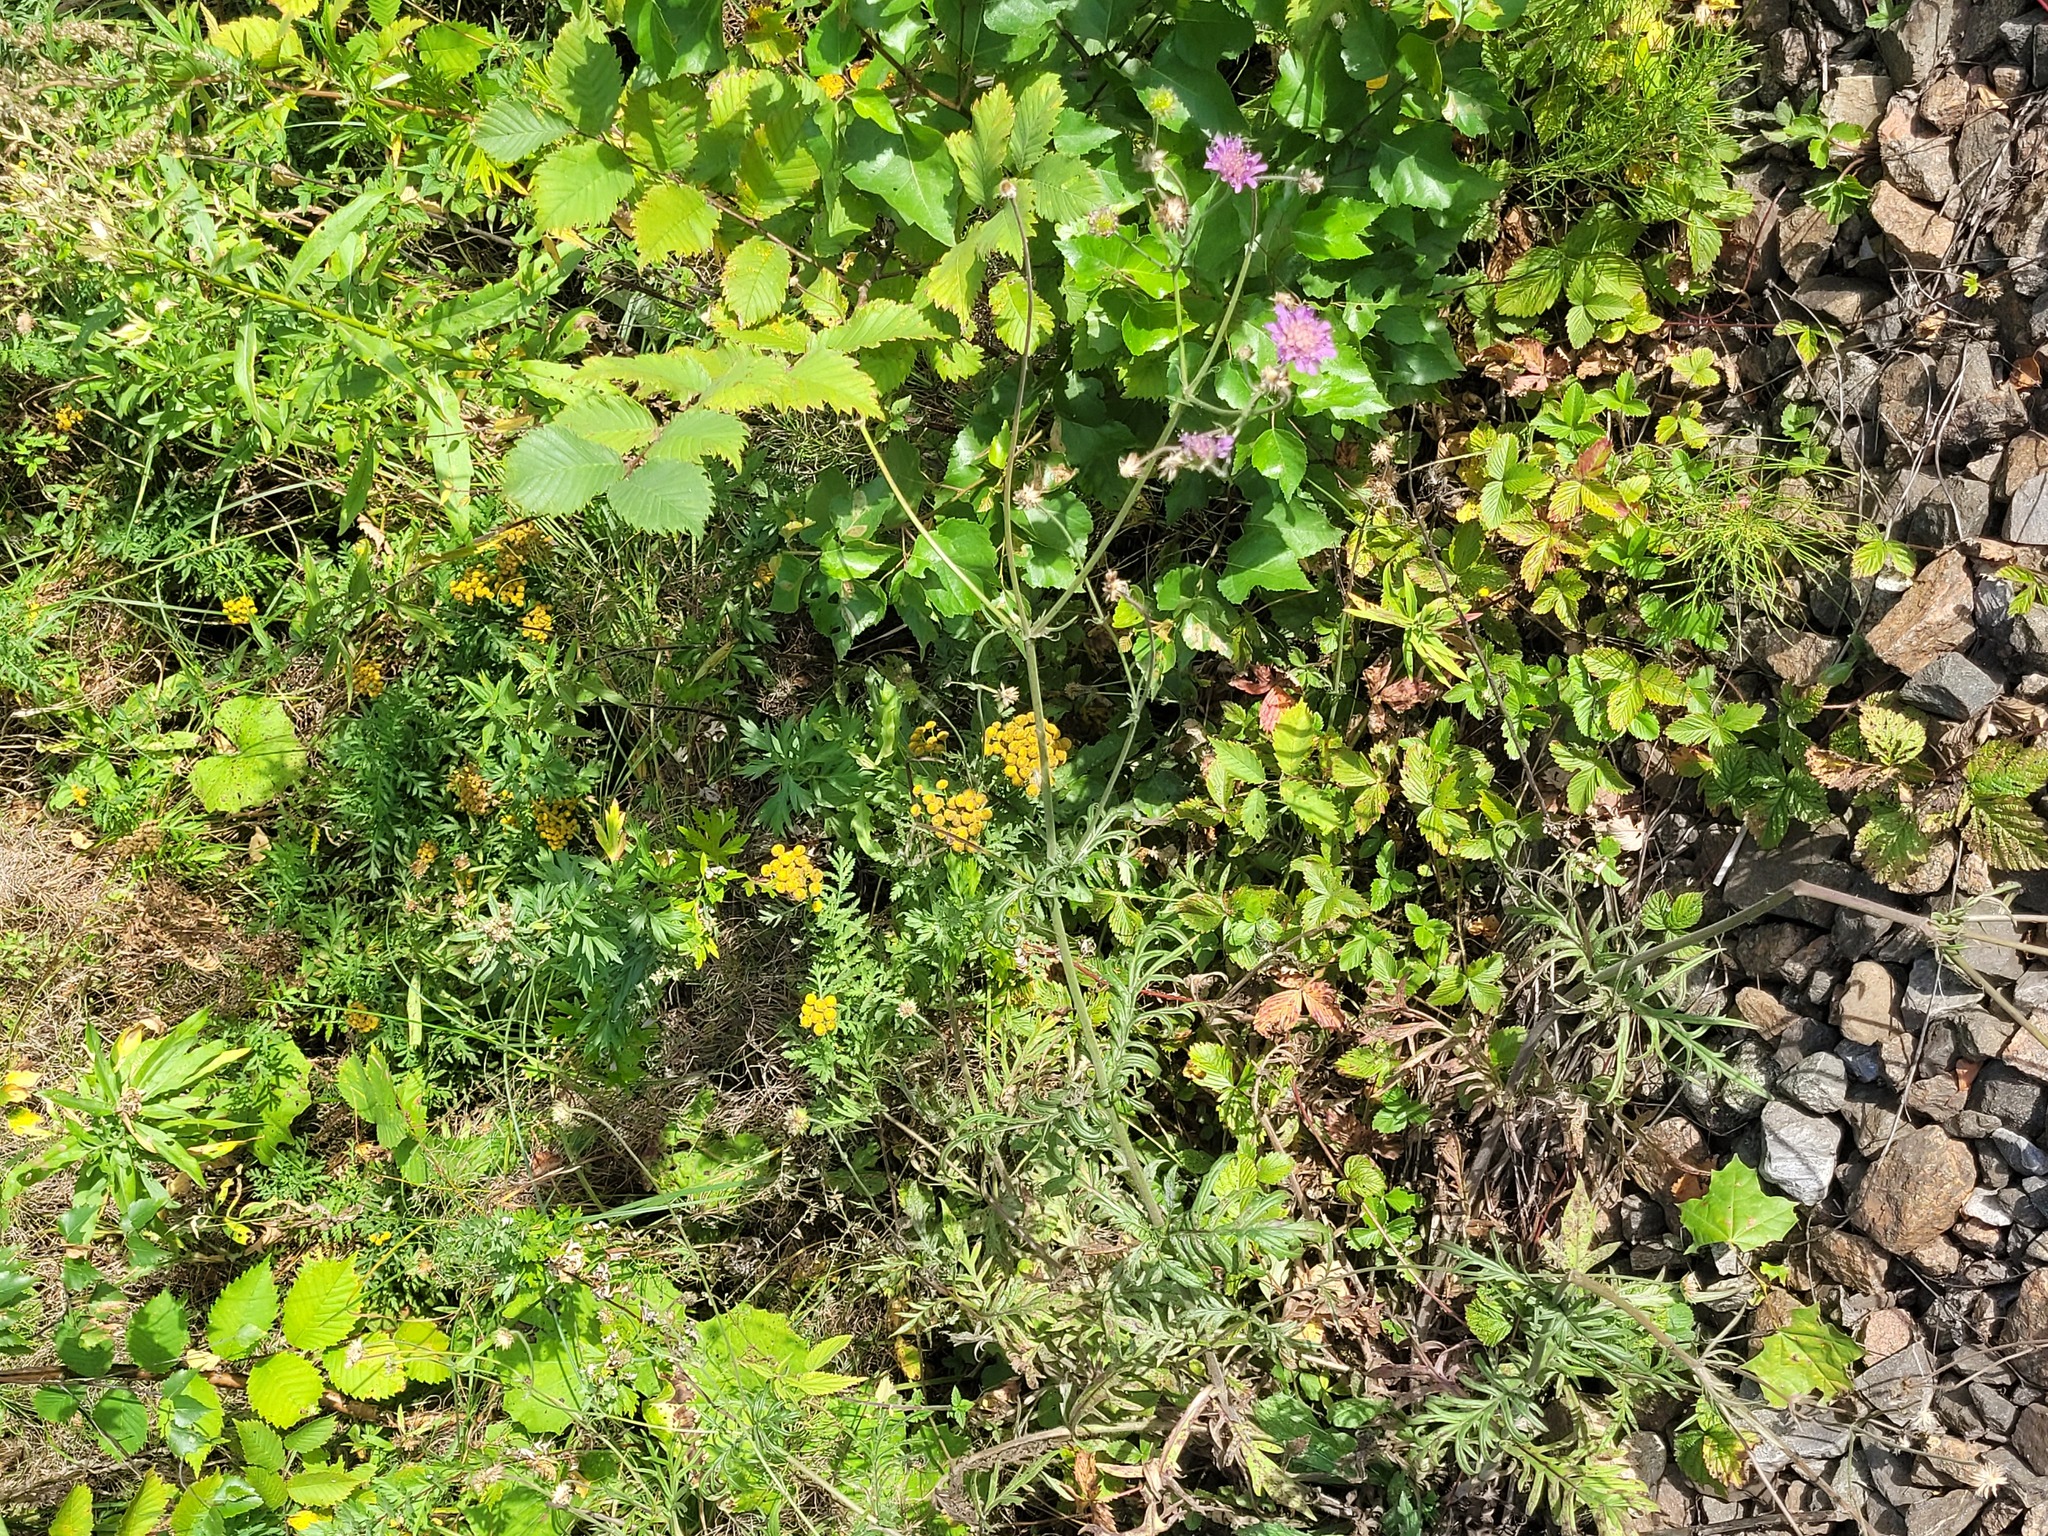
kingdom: Plantae
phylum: Tracheophyta
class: Magnoliopsida
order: Dipsacales
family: Caprifoliaceae
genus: Knautia
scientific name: Knautia arvensis
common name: Field scabiosa
